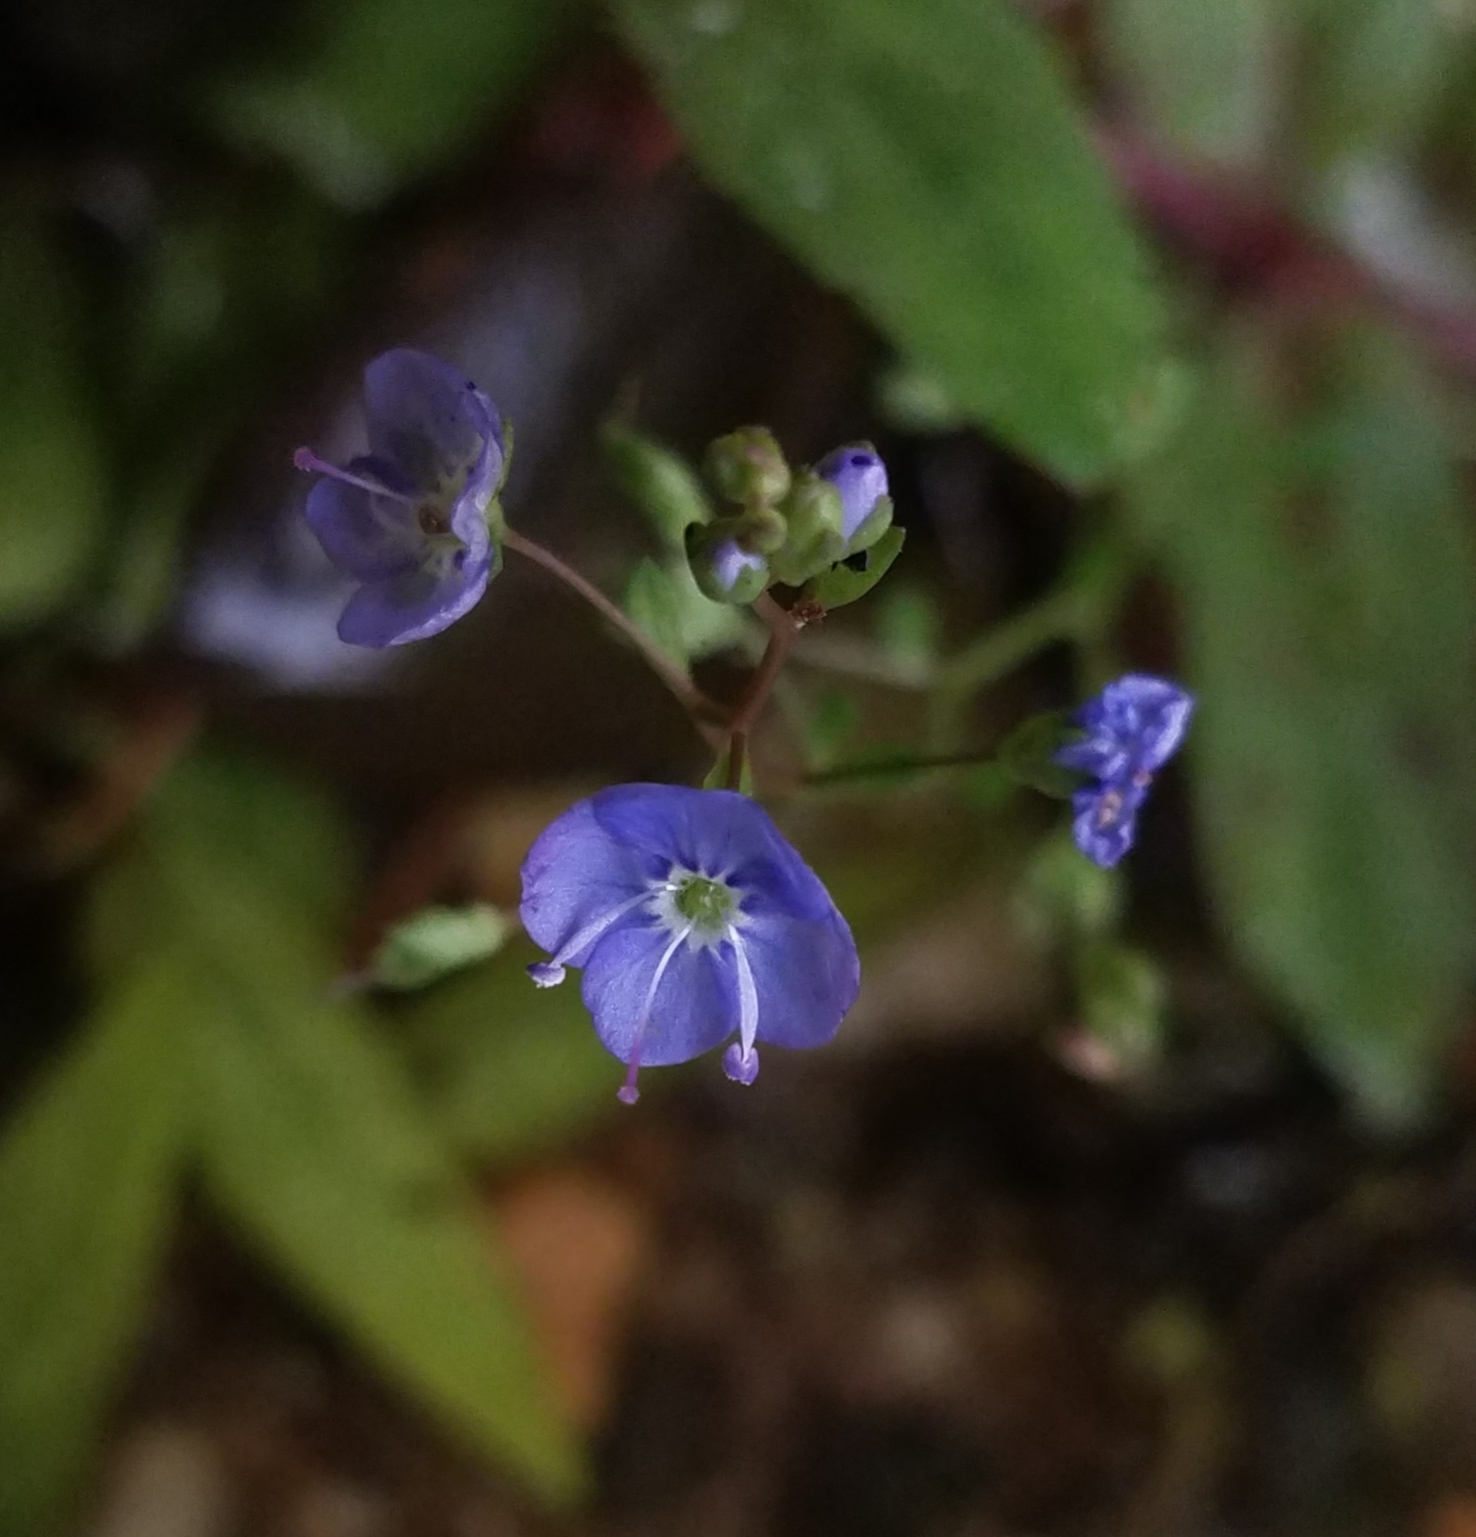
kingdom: Plantae
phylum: Tracheophyta
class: Magnoliopsida
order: Lamiales
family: Plantaginaceae
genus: Veronica
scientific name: Veronica americana
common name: American brooklime
